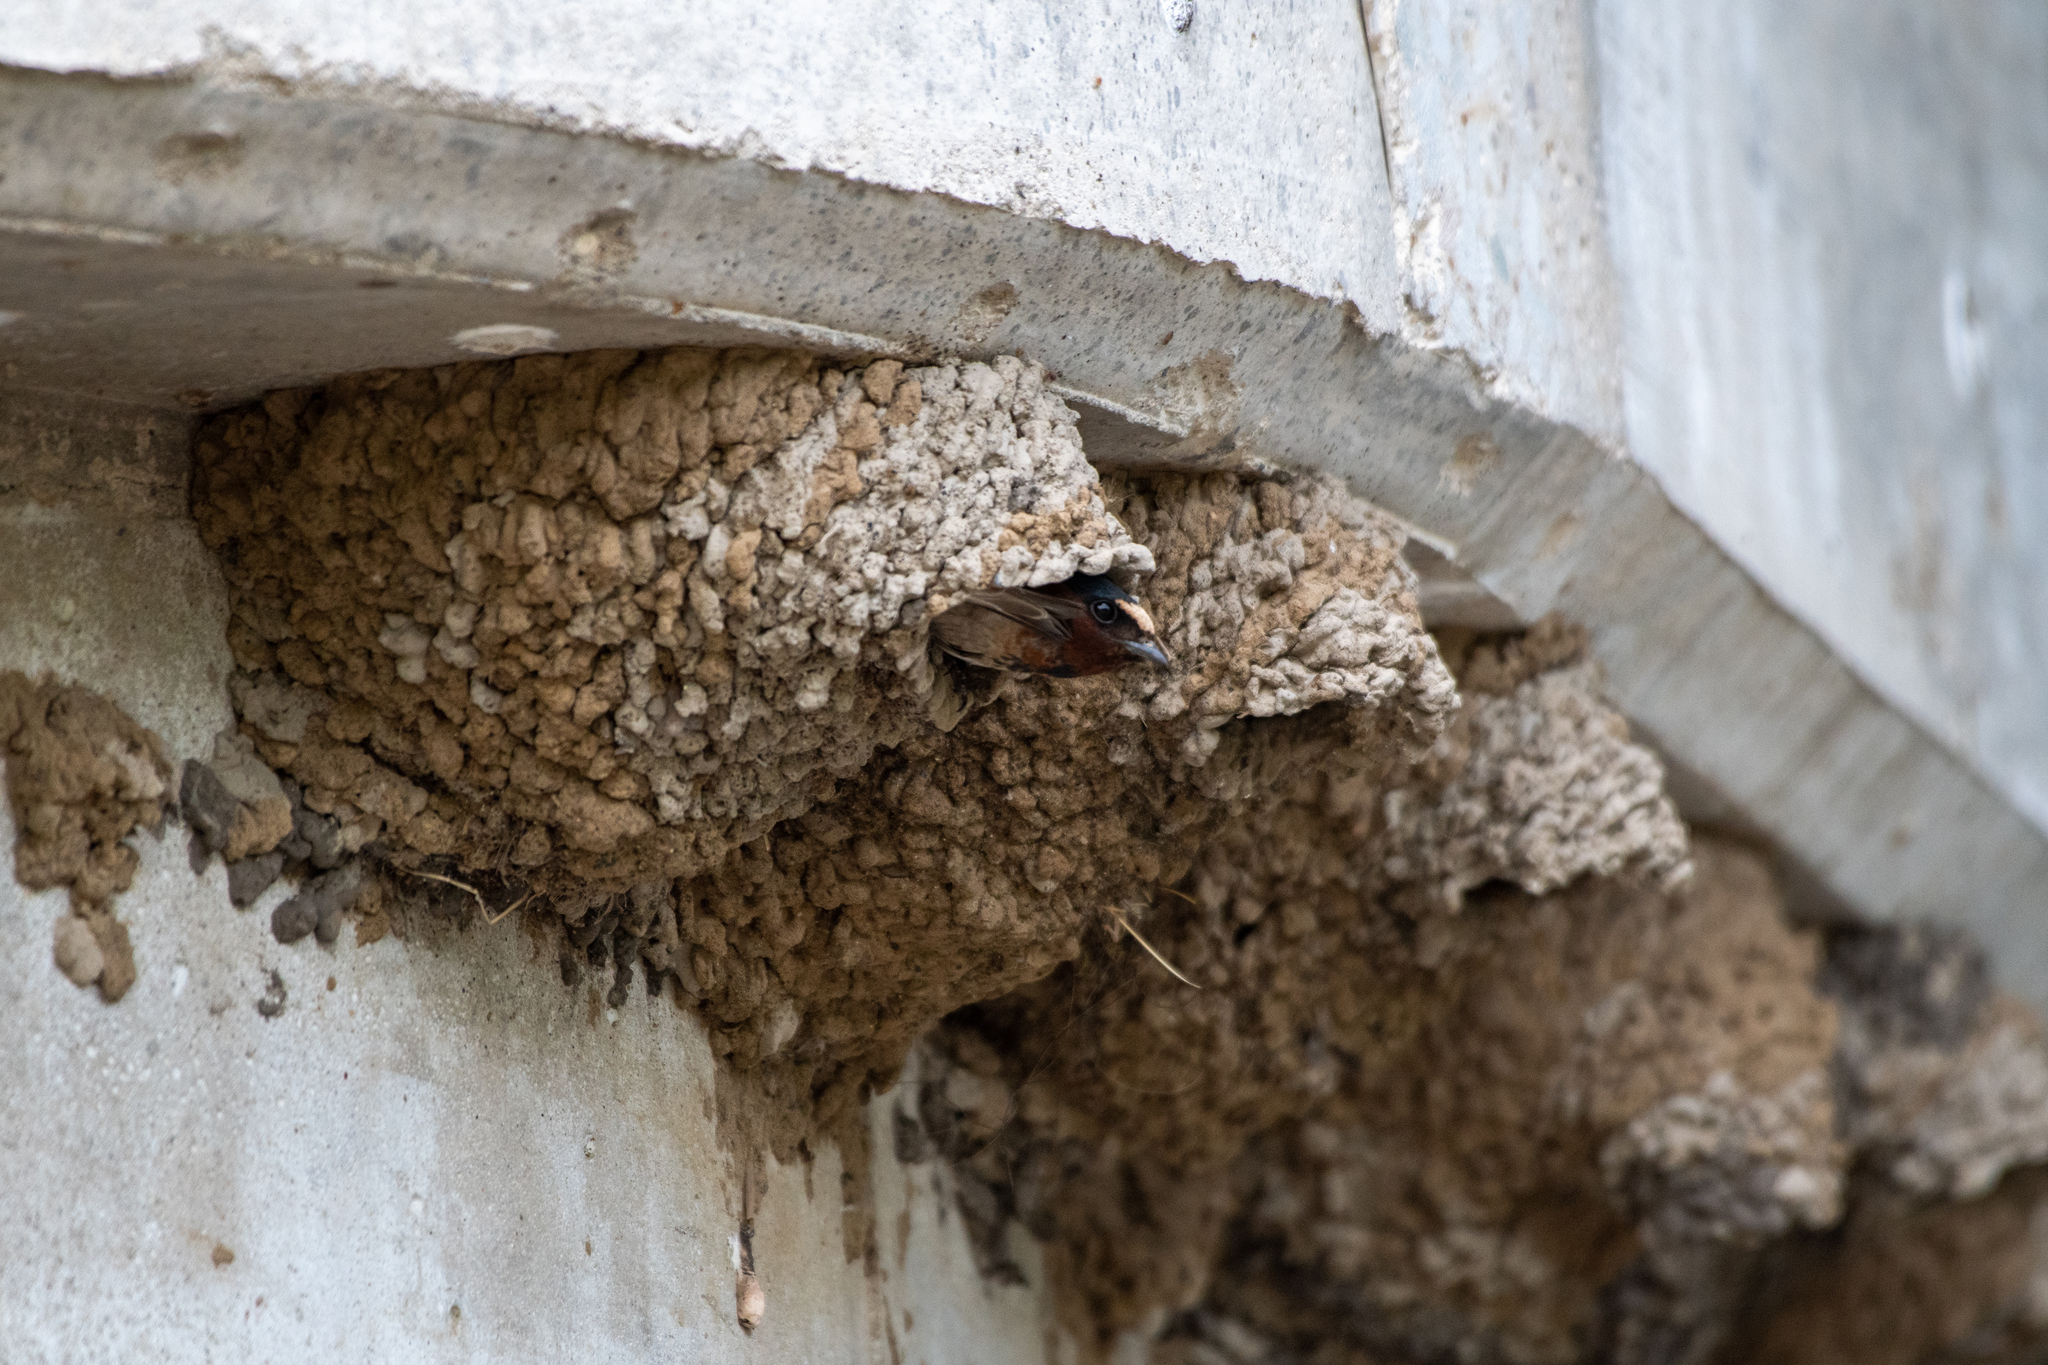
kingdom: Animalia
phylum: Chordata
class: Aves
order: Passeriformes
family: Hirundinidae
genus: Petrochelidon
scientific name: Petrochelidon pyrrhonota
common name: American cliff swallow
